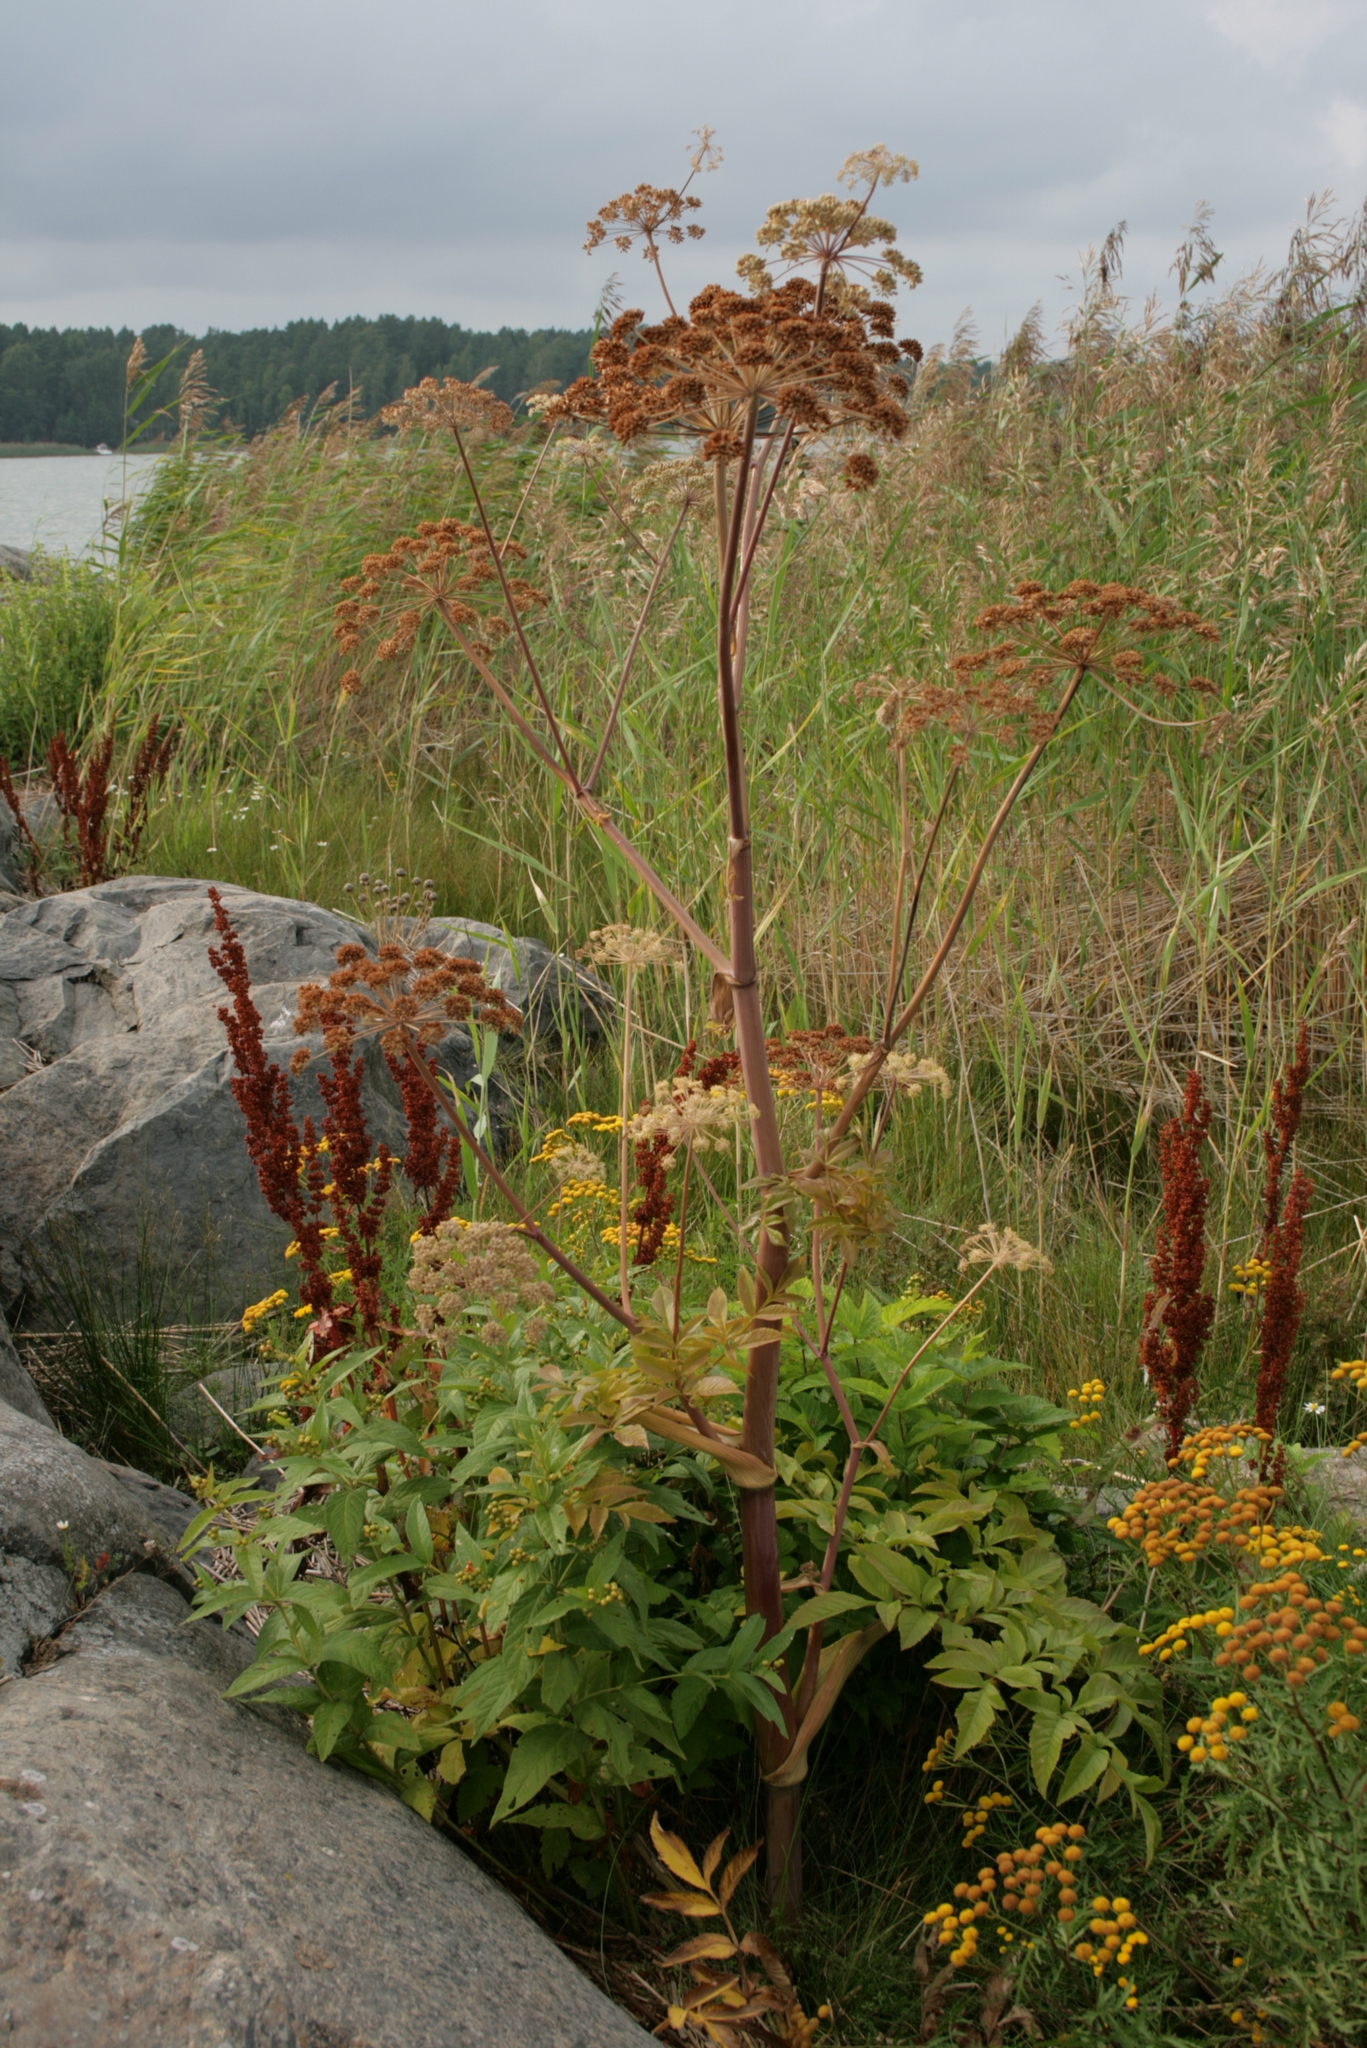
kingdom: Plantae
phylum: Tracheophyta
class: Magnoliopsida
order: Apiales
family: Apiaceae
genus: Angelica
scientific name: Angelica archangelica
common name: Garden angelica
